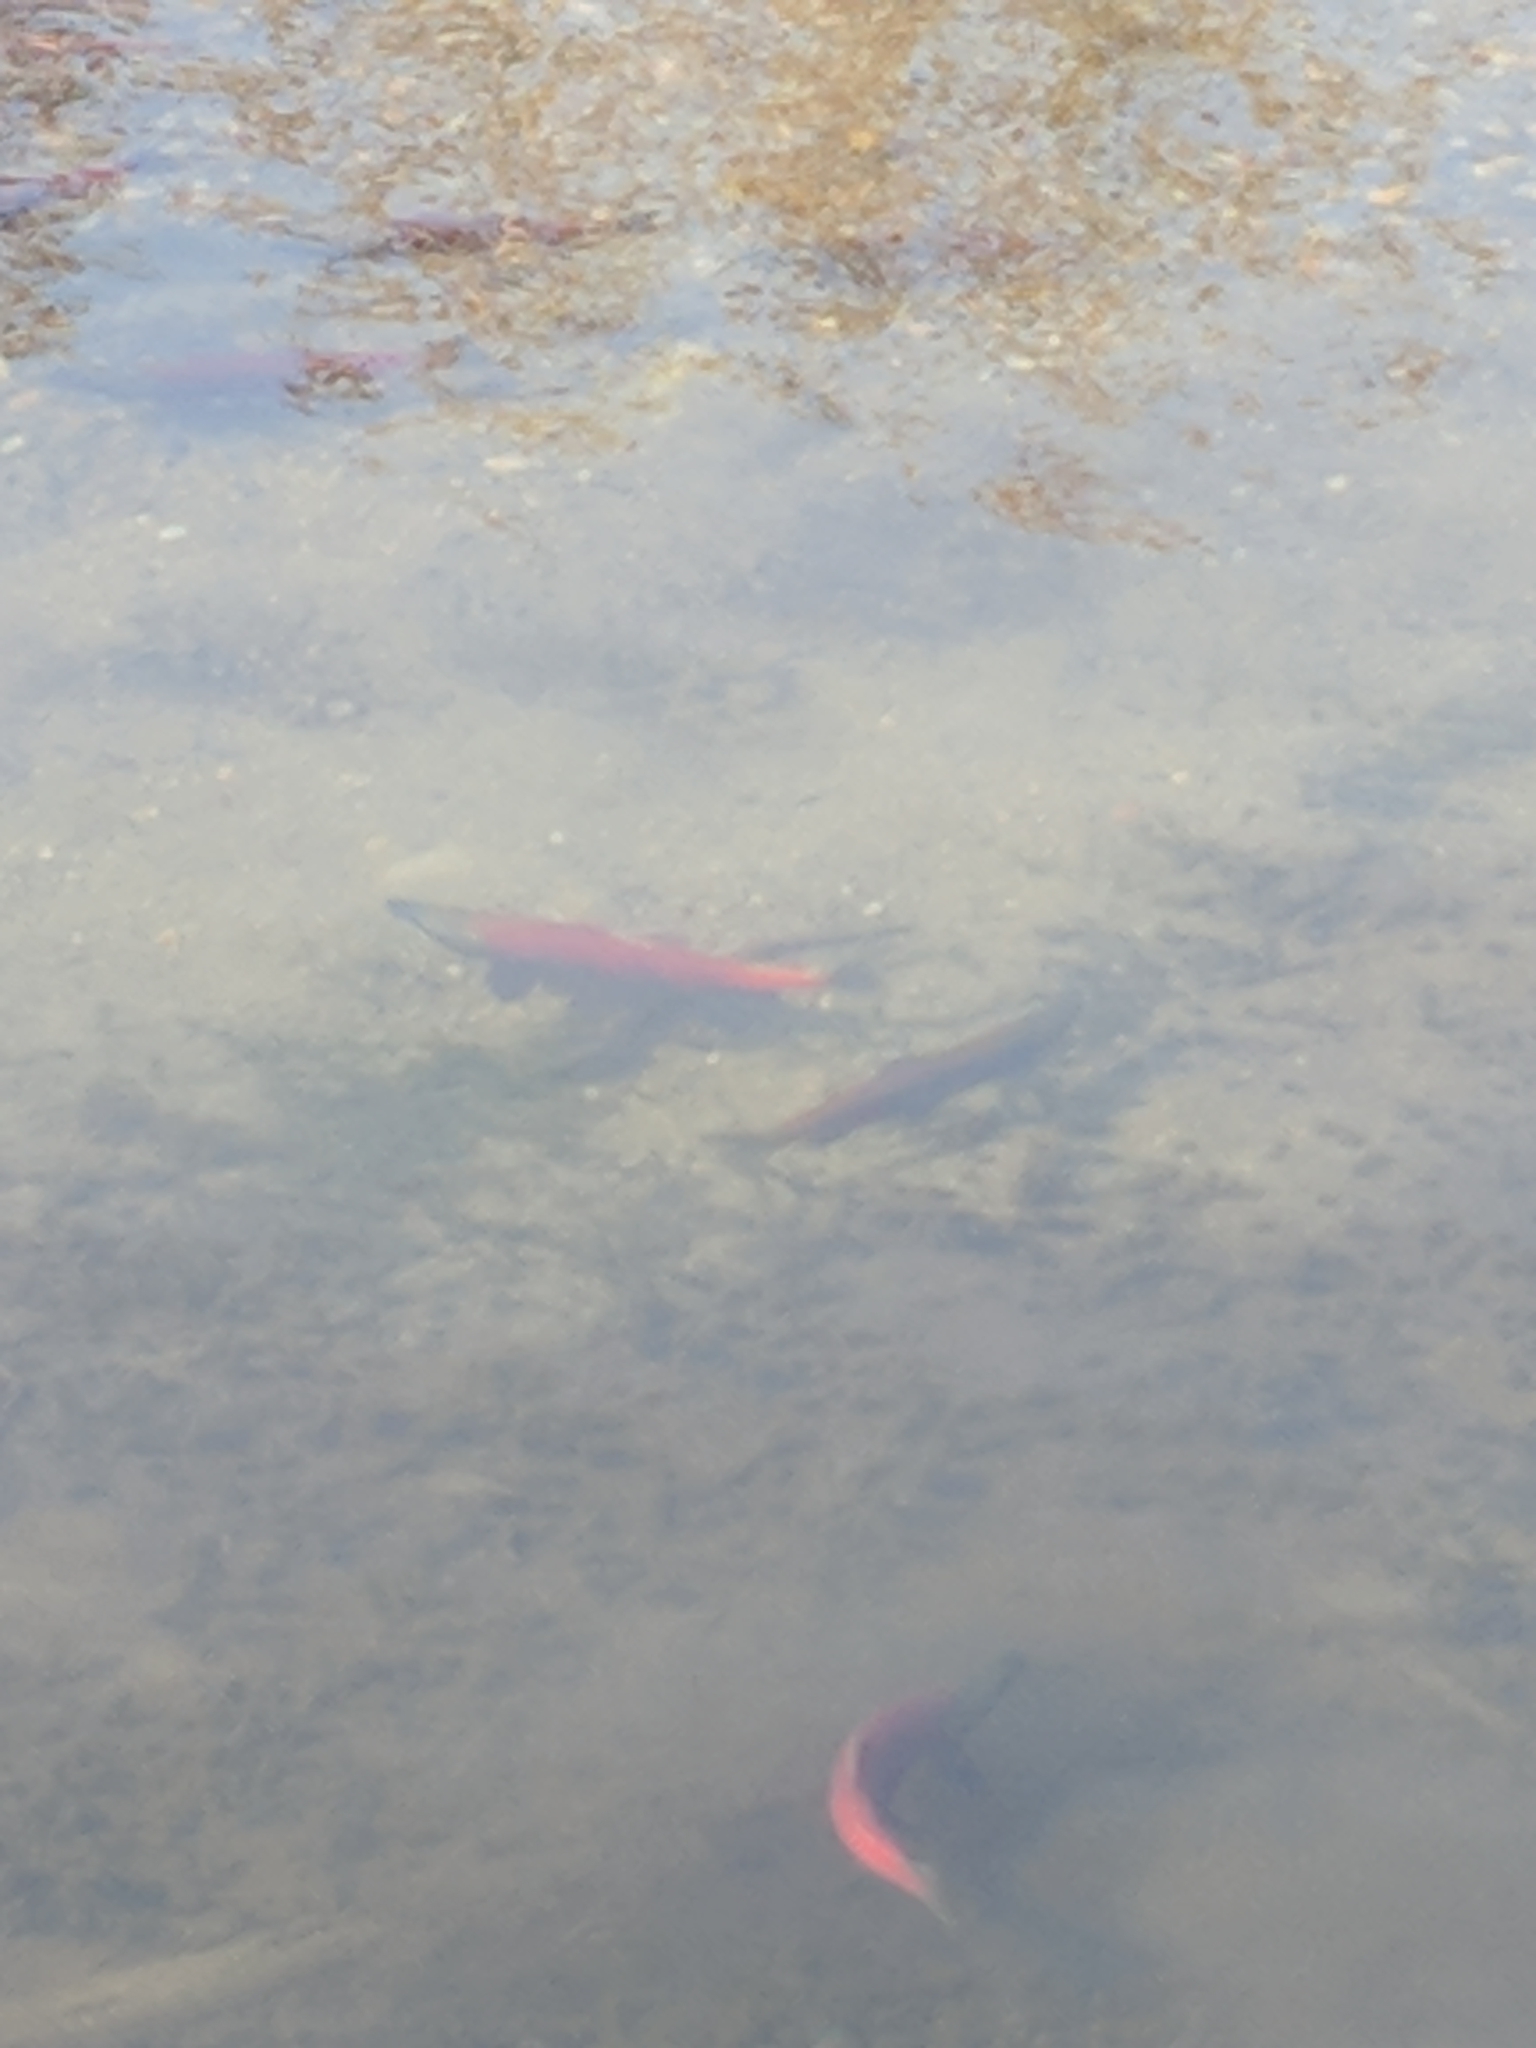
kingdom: Animalia
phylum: Chordata
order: Salmoniformes
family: Salmonidae
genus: Oncorhynchus
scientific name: Oncorhynchus nerka
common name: Sockeye salmon
